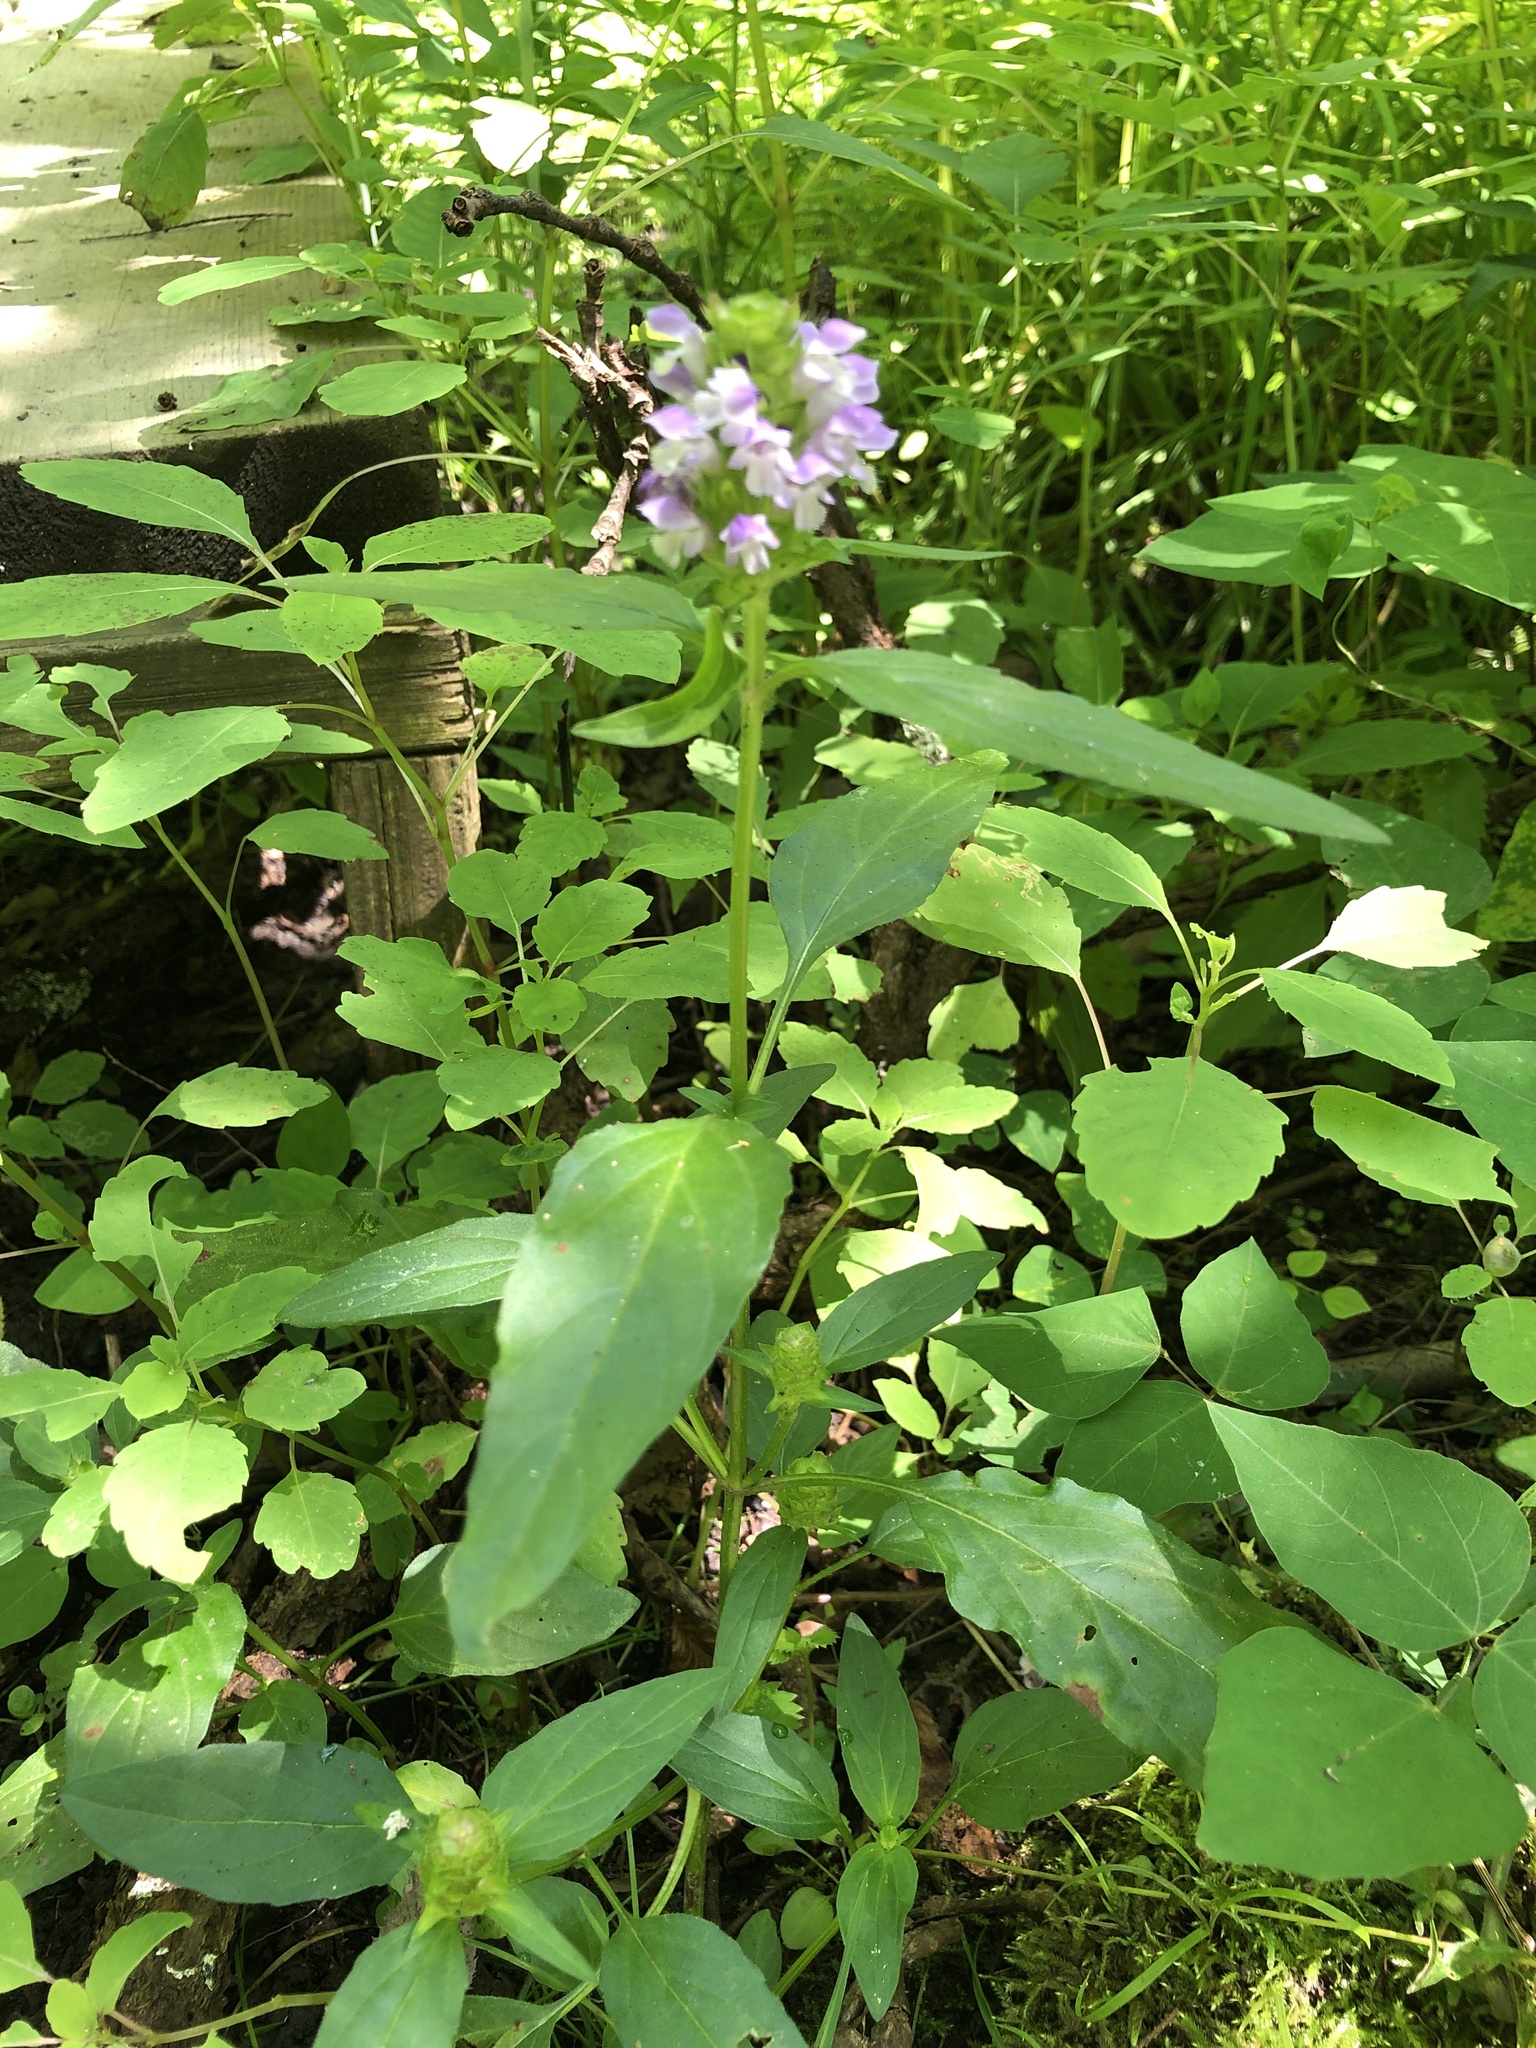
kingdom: Plantae
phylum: Tracheophyta
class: Magnoliopsida
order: Lamiales
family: Lamiaceae
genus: Prunella
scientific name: Prunella vulgaris
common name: Heal-all
